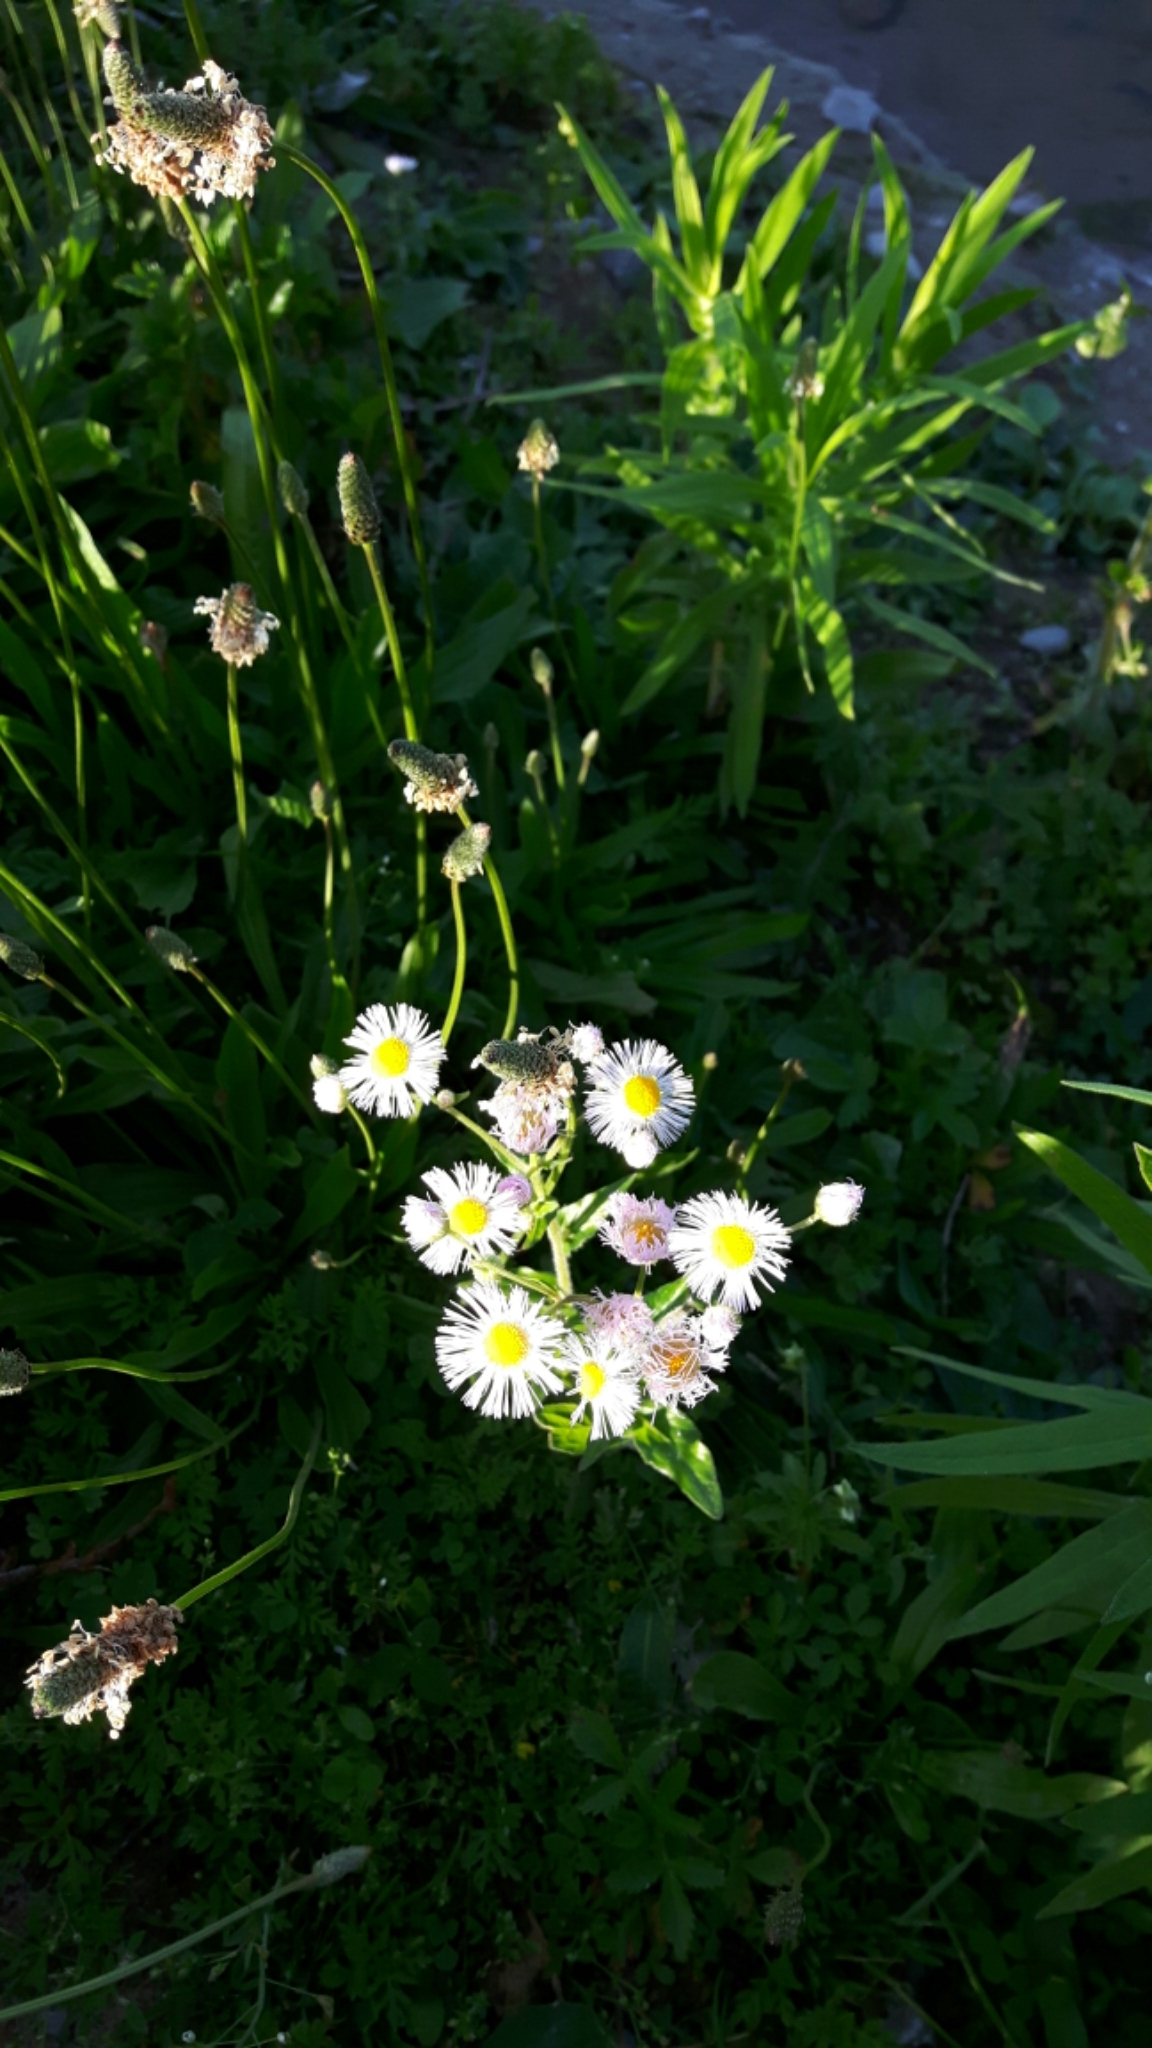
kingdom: Plantae
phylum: Tracheophyta
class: Magnoliopsida
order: Asterales
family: Asteraceae
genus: Erigeron
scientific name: Erigeron philadelphicus
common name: Robin's-plantain
